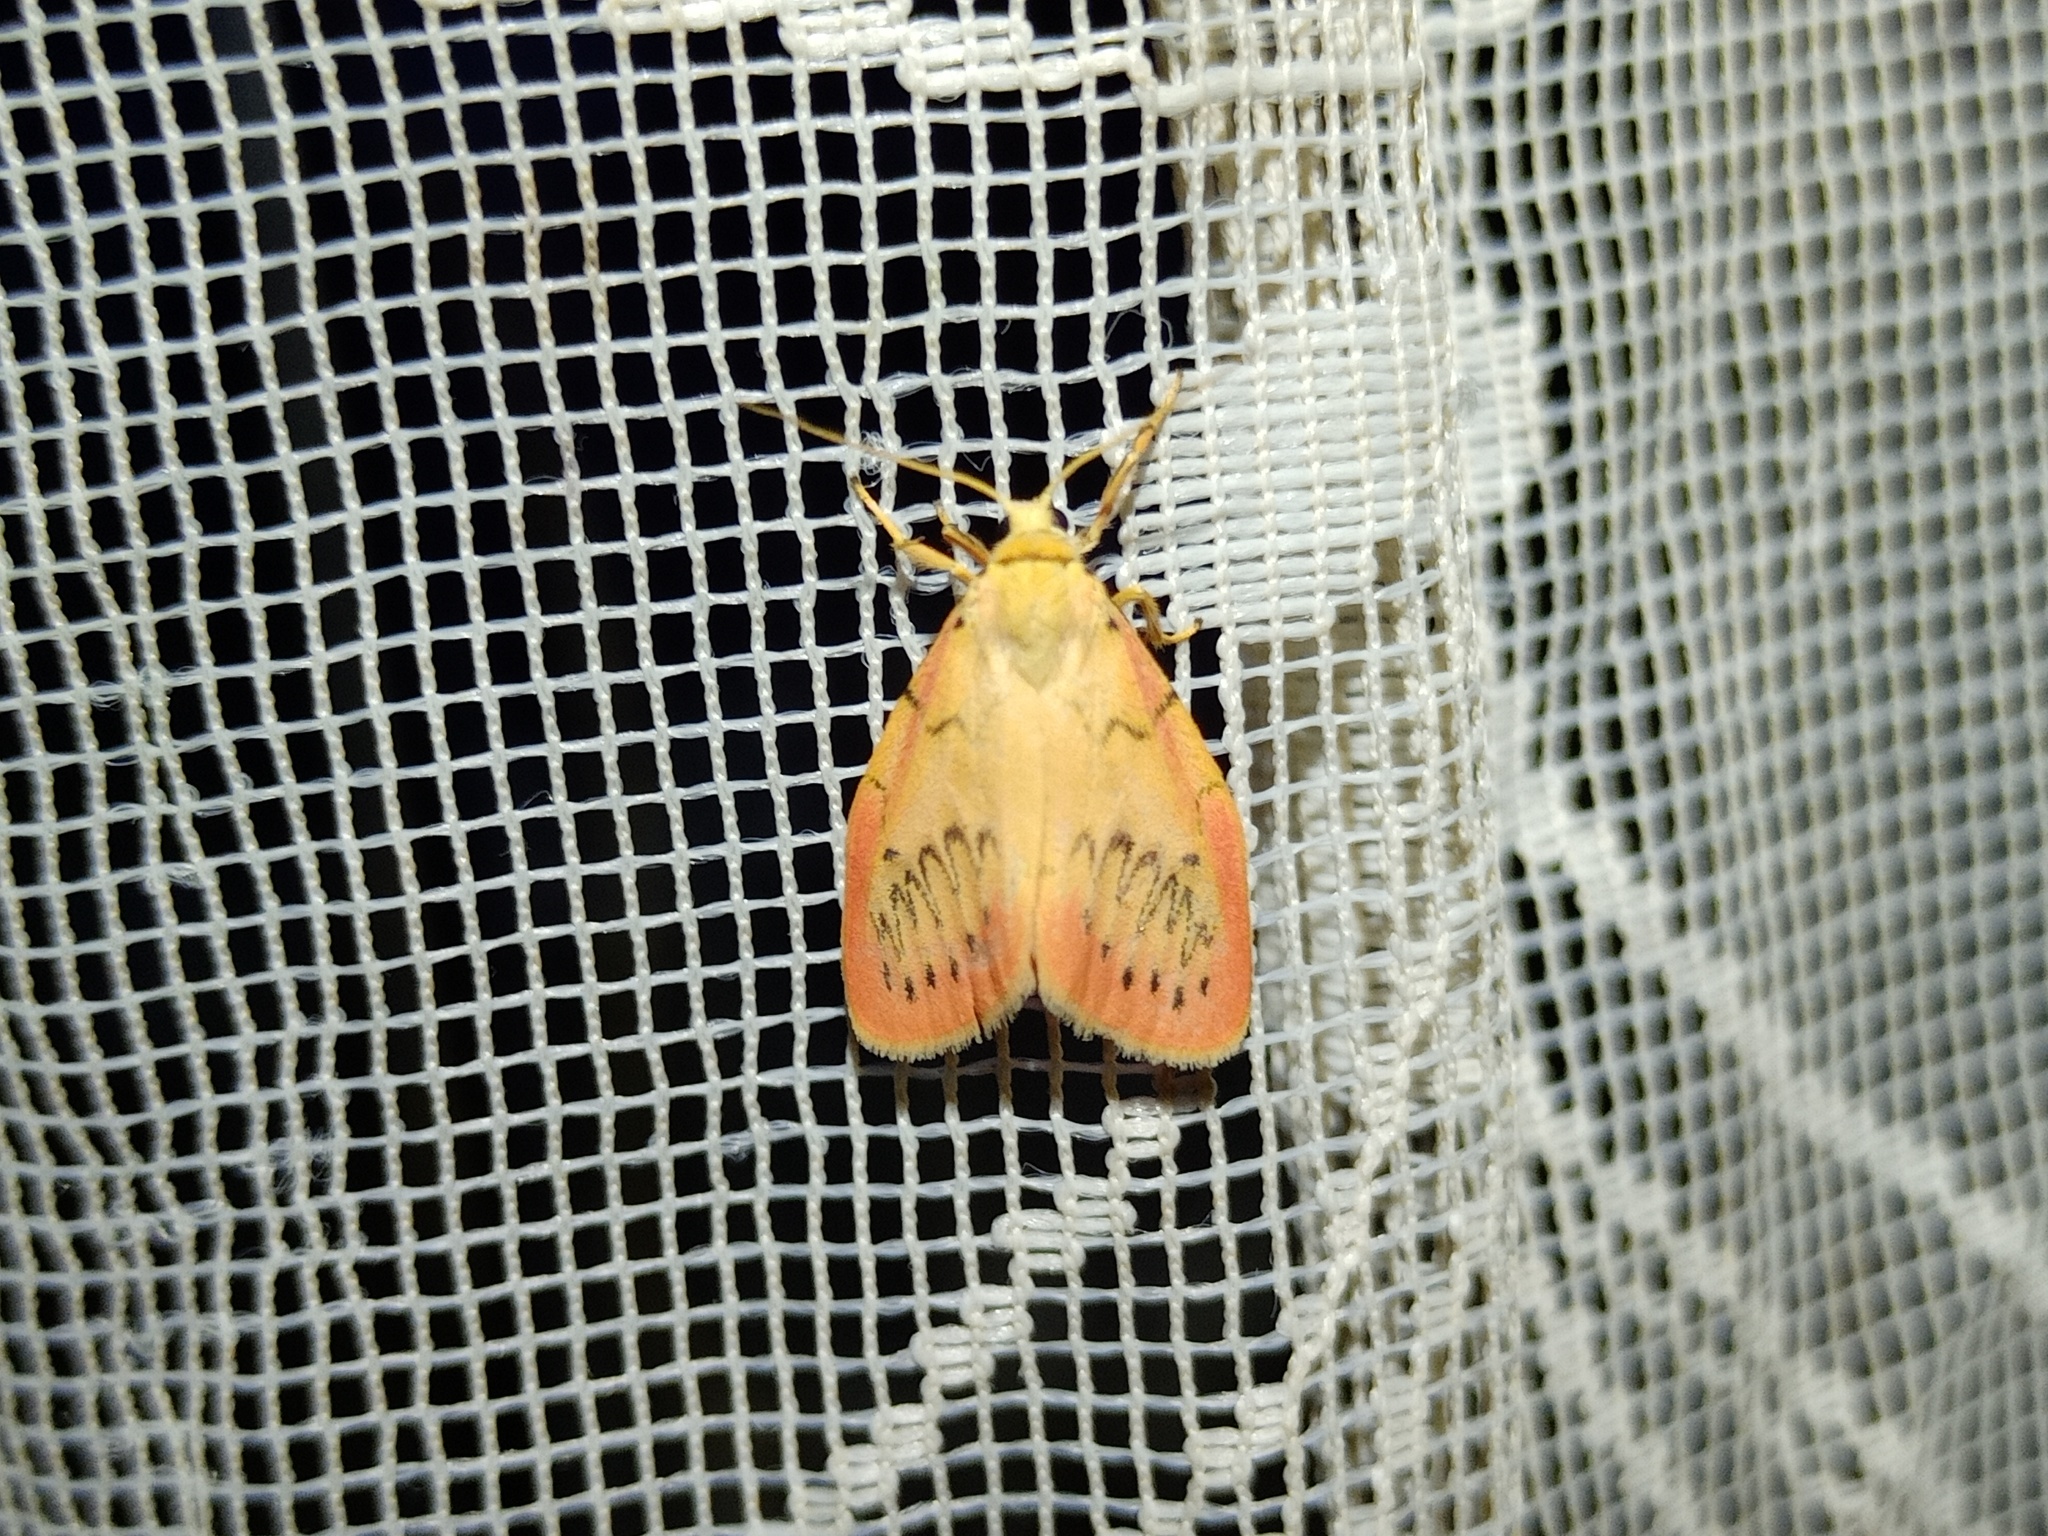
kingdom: Animalia
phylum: Arthropoda
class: Insecta
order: Lepidoptera
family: Erebidae
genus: Miltochrista
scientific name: Miltochrista miniata
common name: Rosy footman
